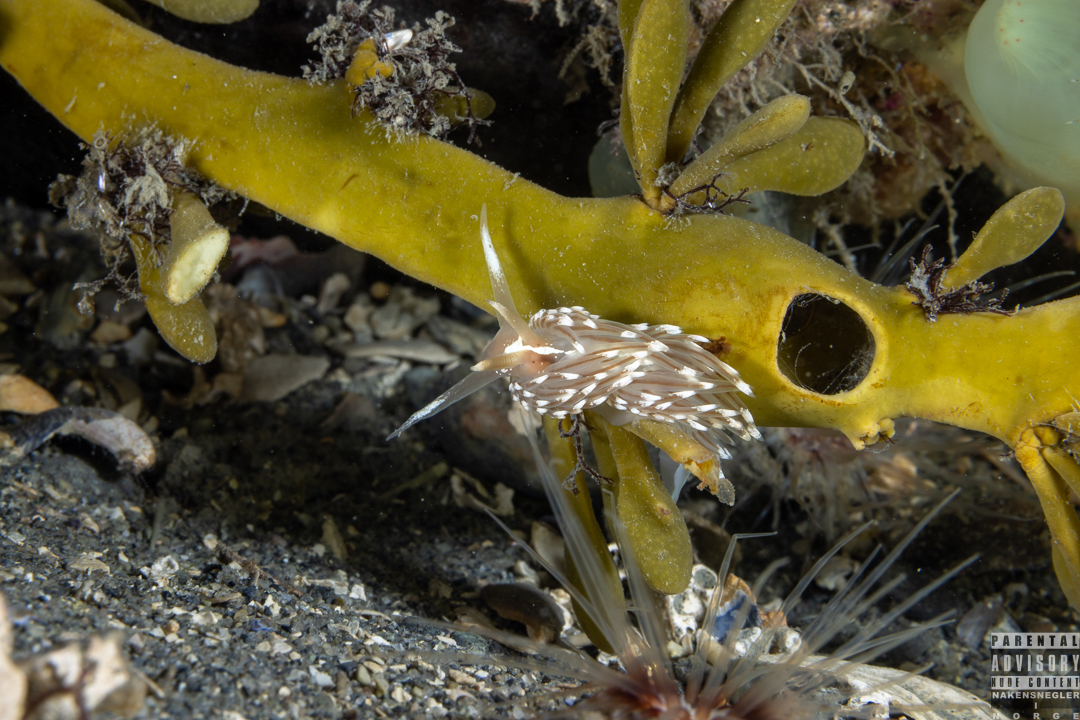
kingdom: Animalia
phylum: Mollusca
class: Gastropoda
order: Nudibranchia
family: Facelinidae
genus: Facelina
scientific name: Facelina bostoniensis
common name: Boston facelina
